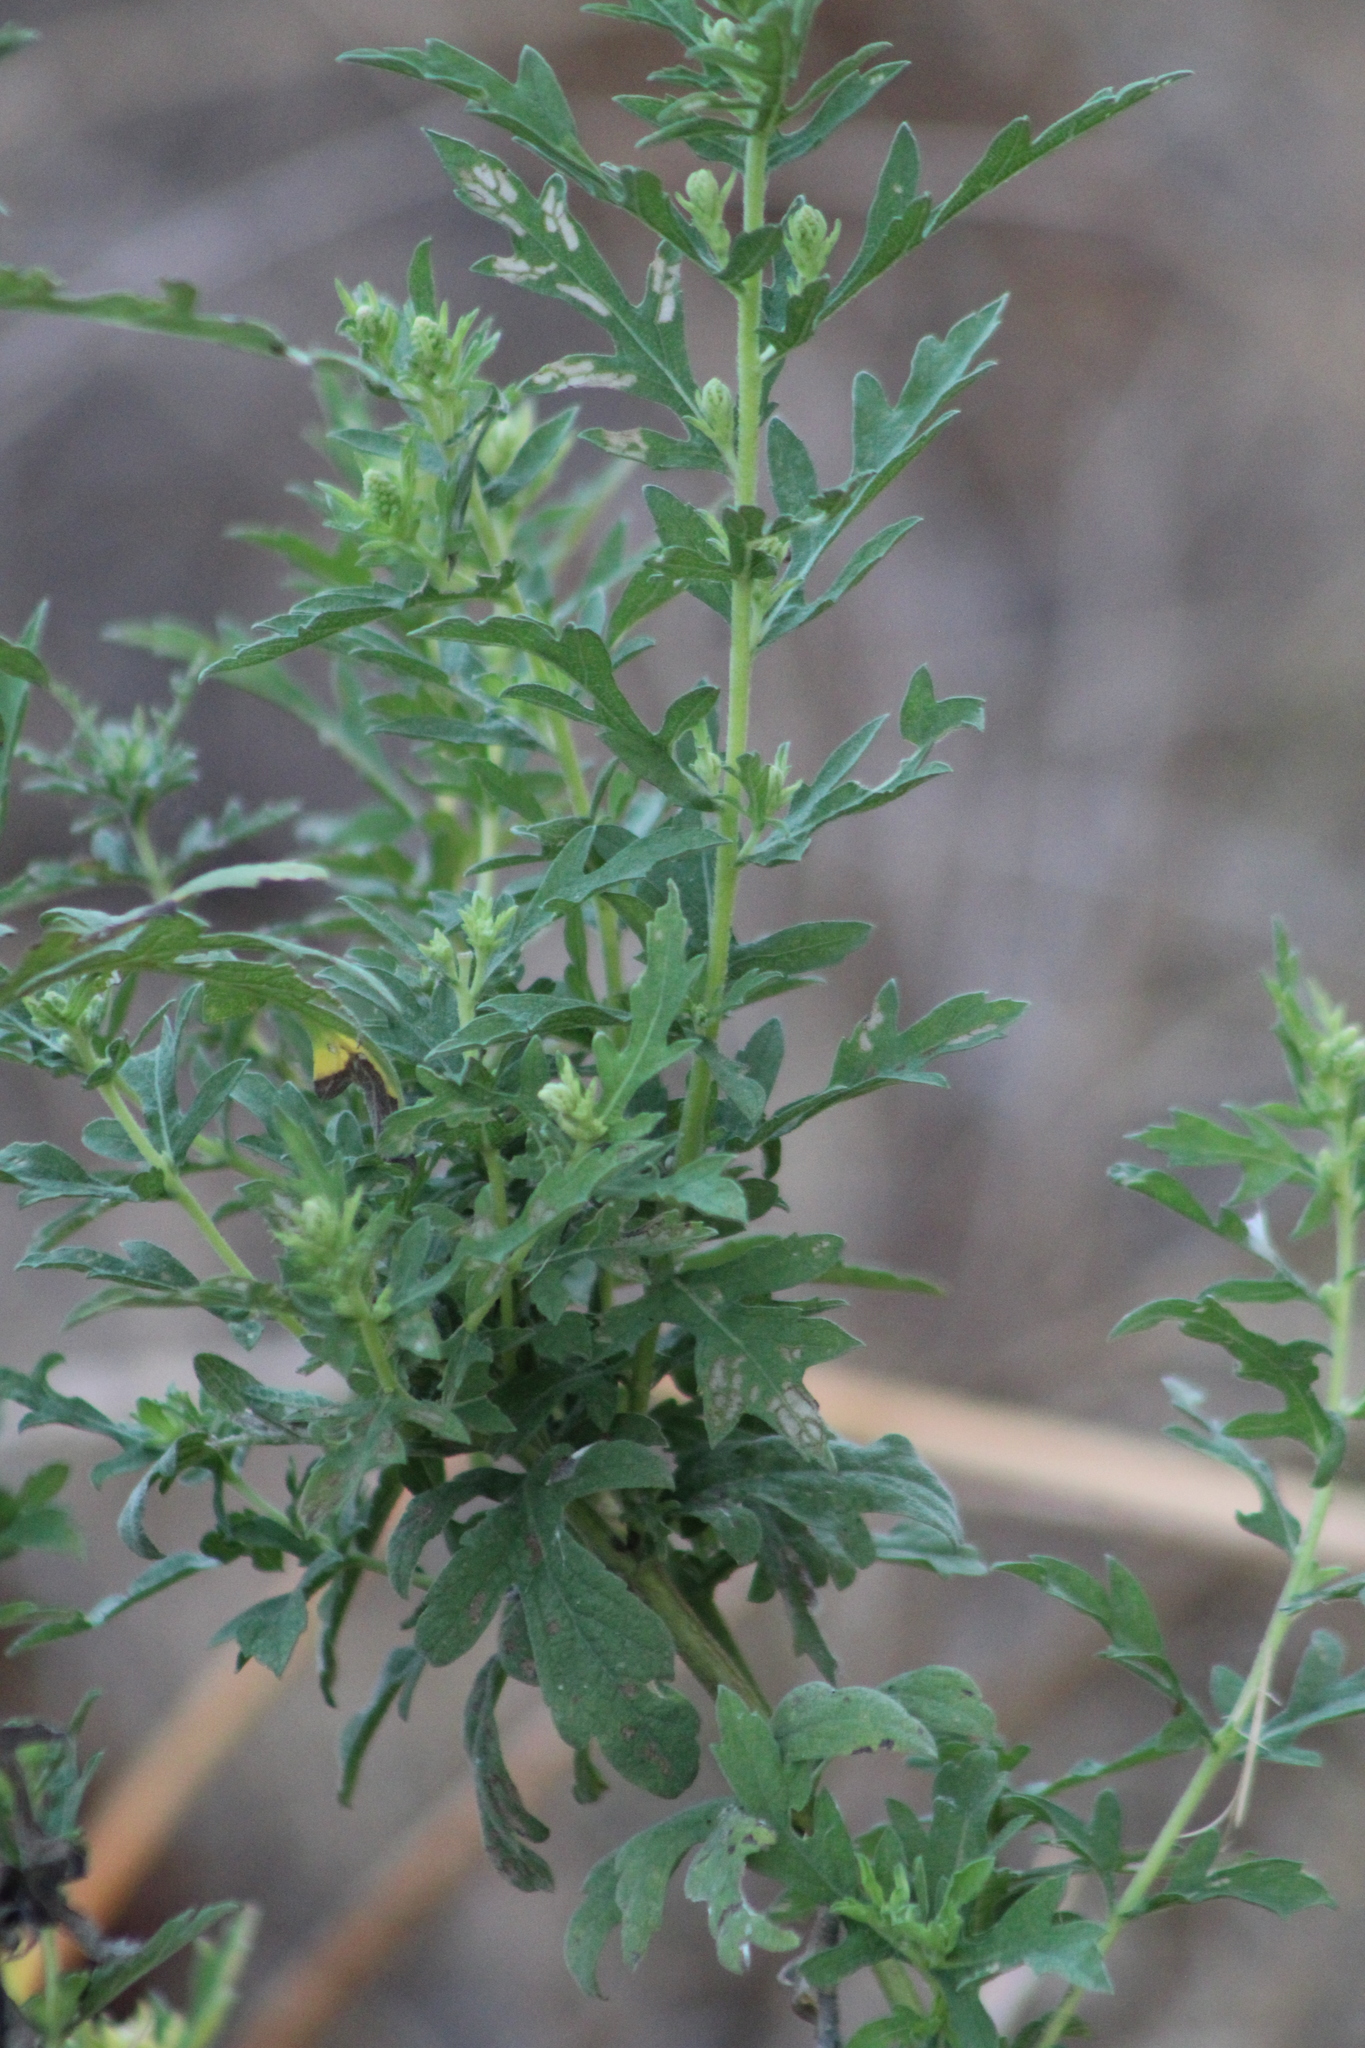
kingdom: Plantae
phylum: Tracheophyta
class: Magnoliopsida
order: Asterales
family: Asteraceae
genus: Ambrosia
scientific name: Ambrosia psilostachya
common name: Perennial ragweed
